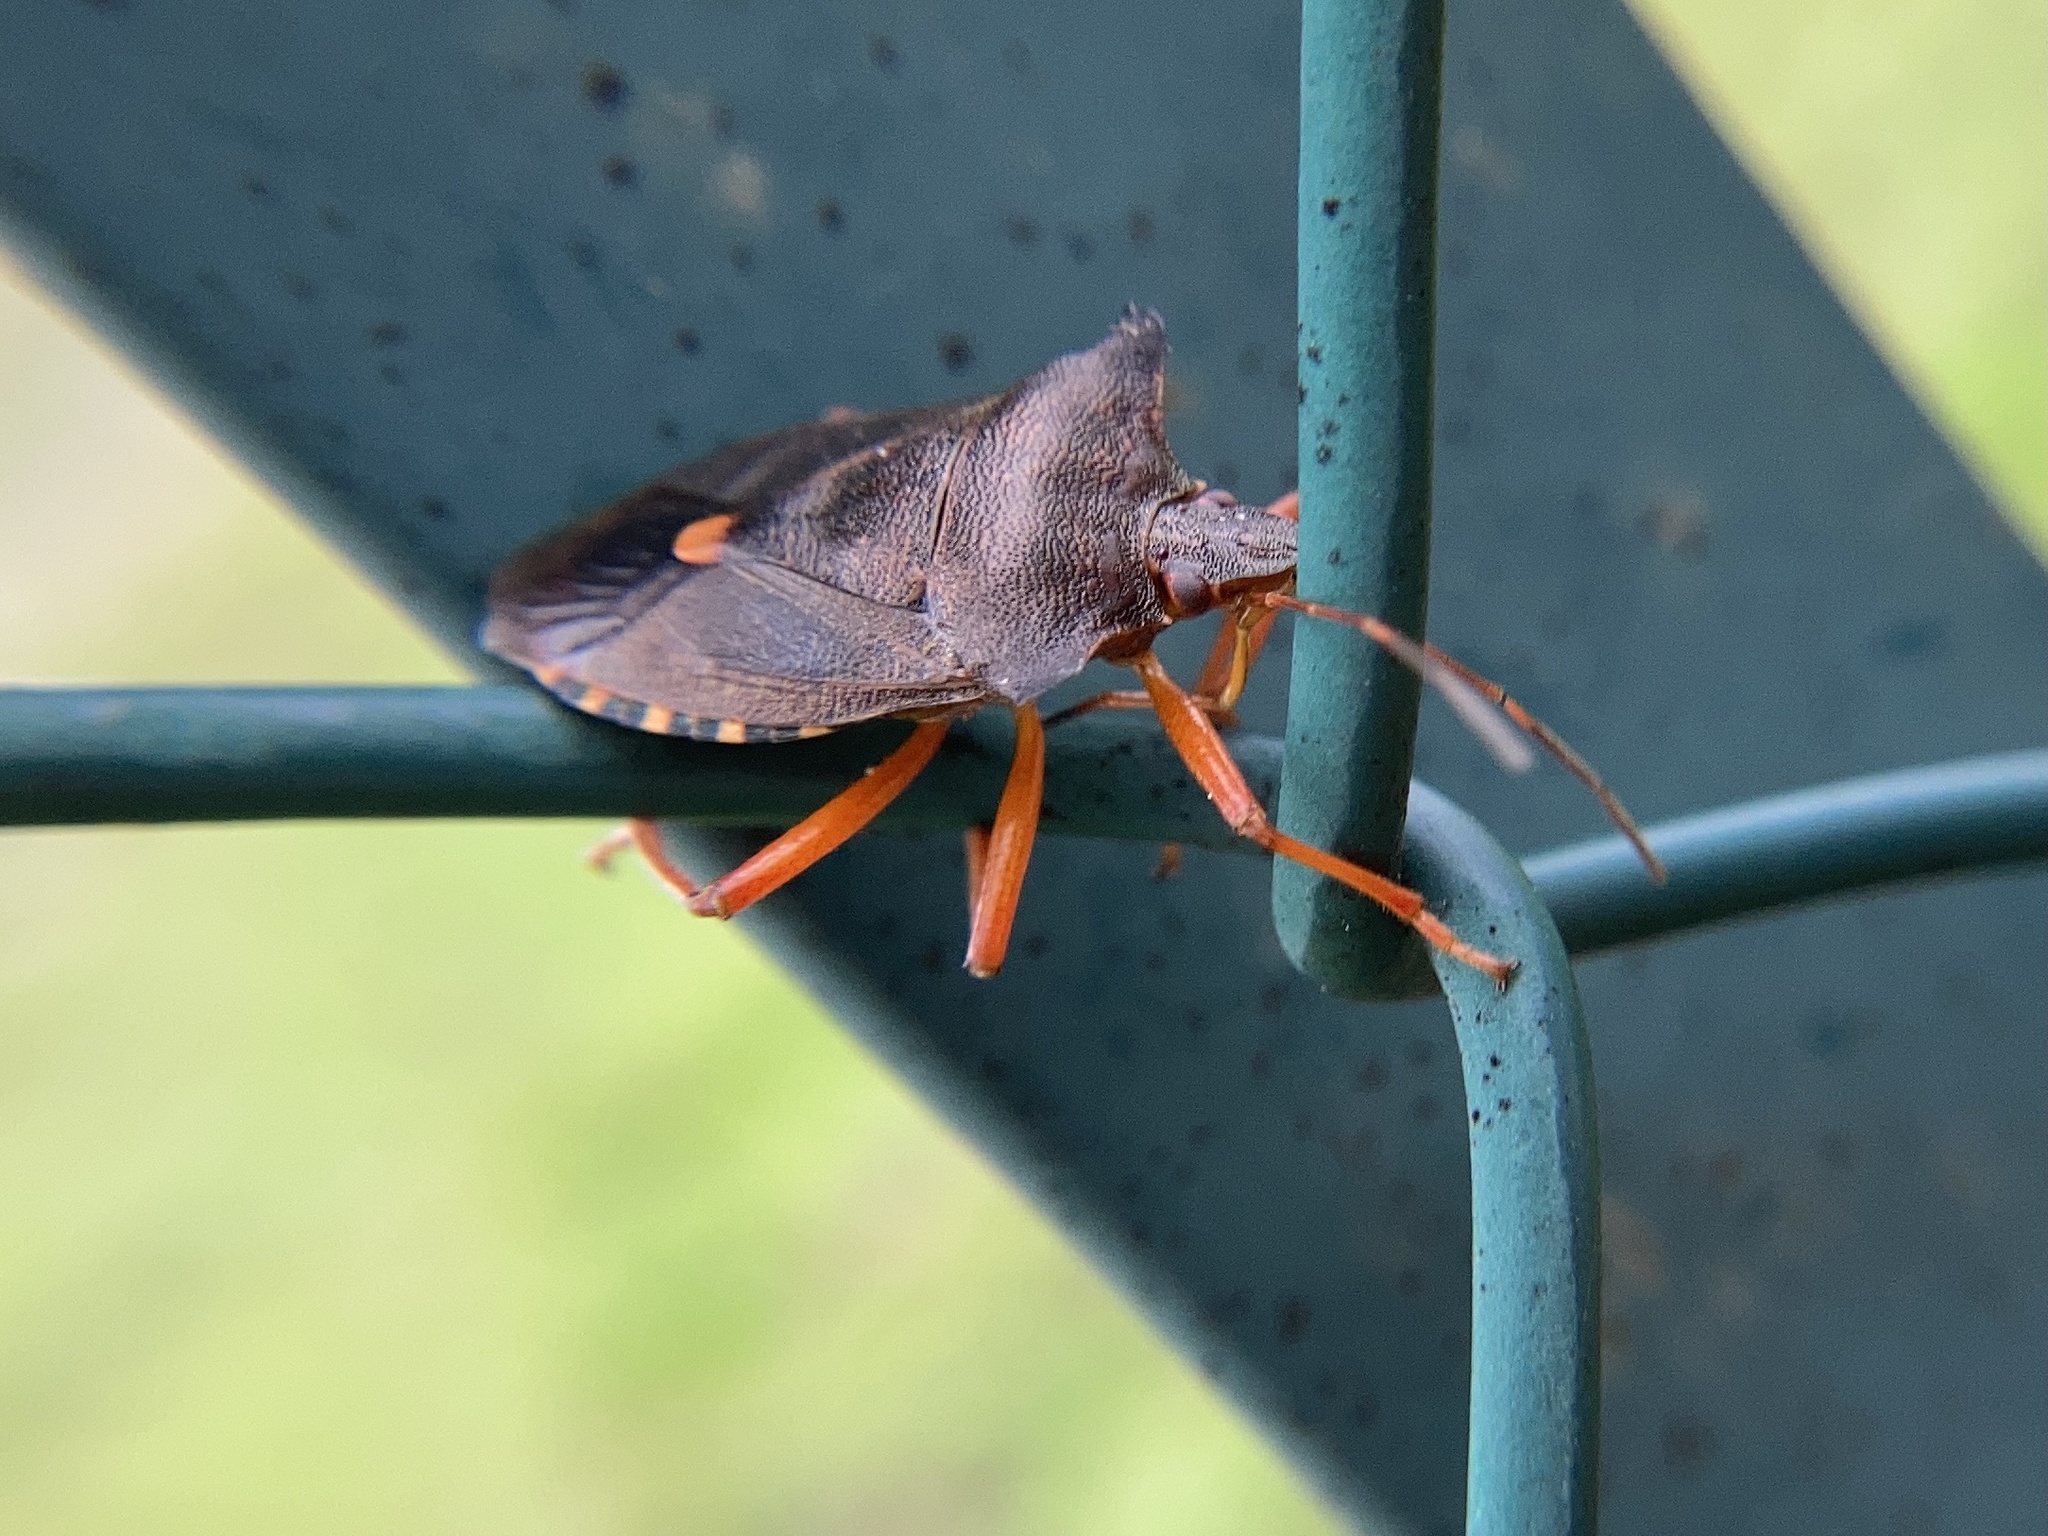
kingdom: Animalia
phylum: Arthropoda
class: Insecta
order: Hemiptera
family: Pentatomidae
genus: Pentatoma
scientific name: Pentatoma rufipes
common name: Forest bug
